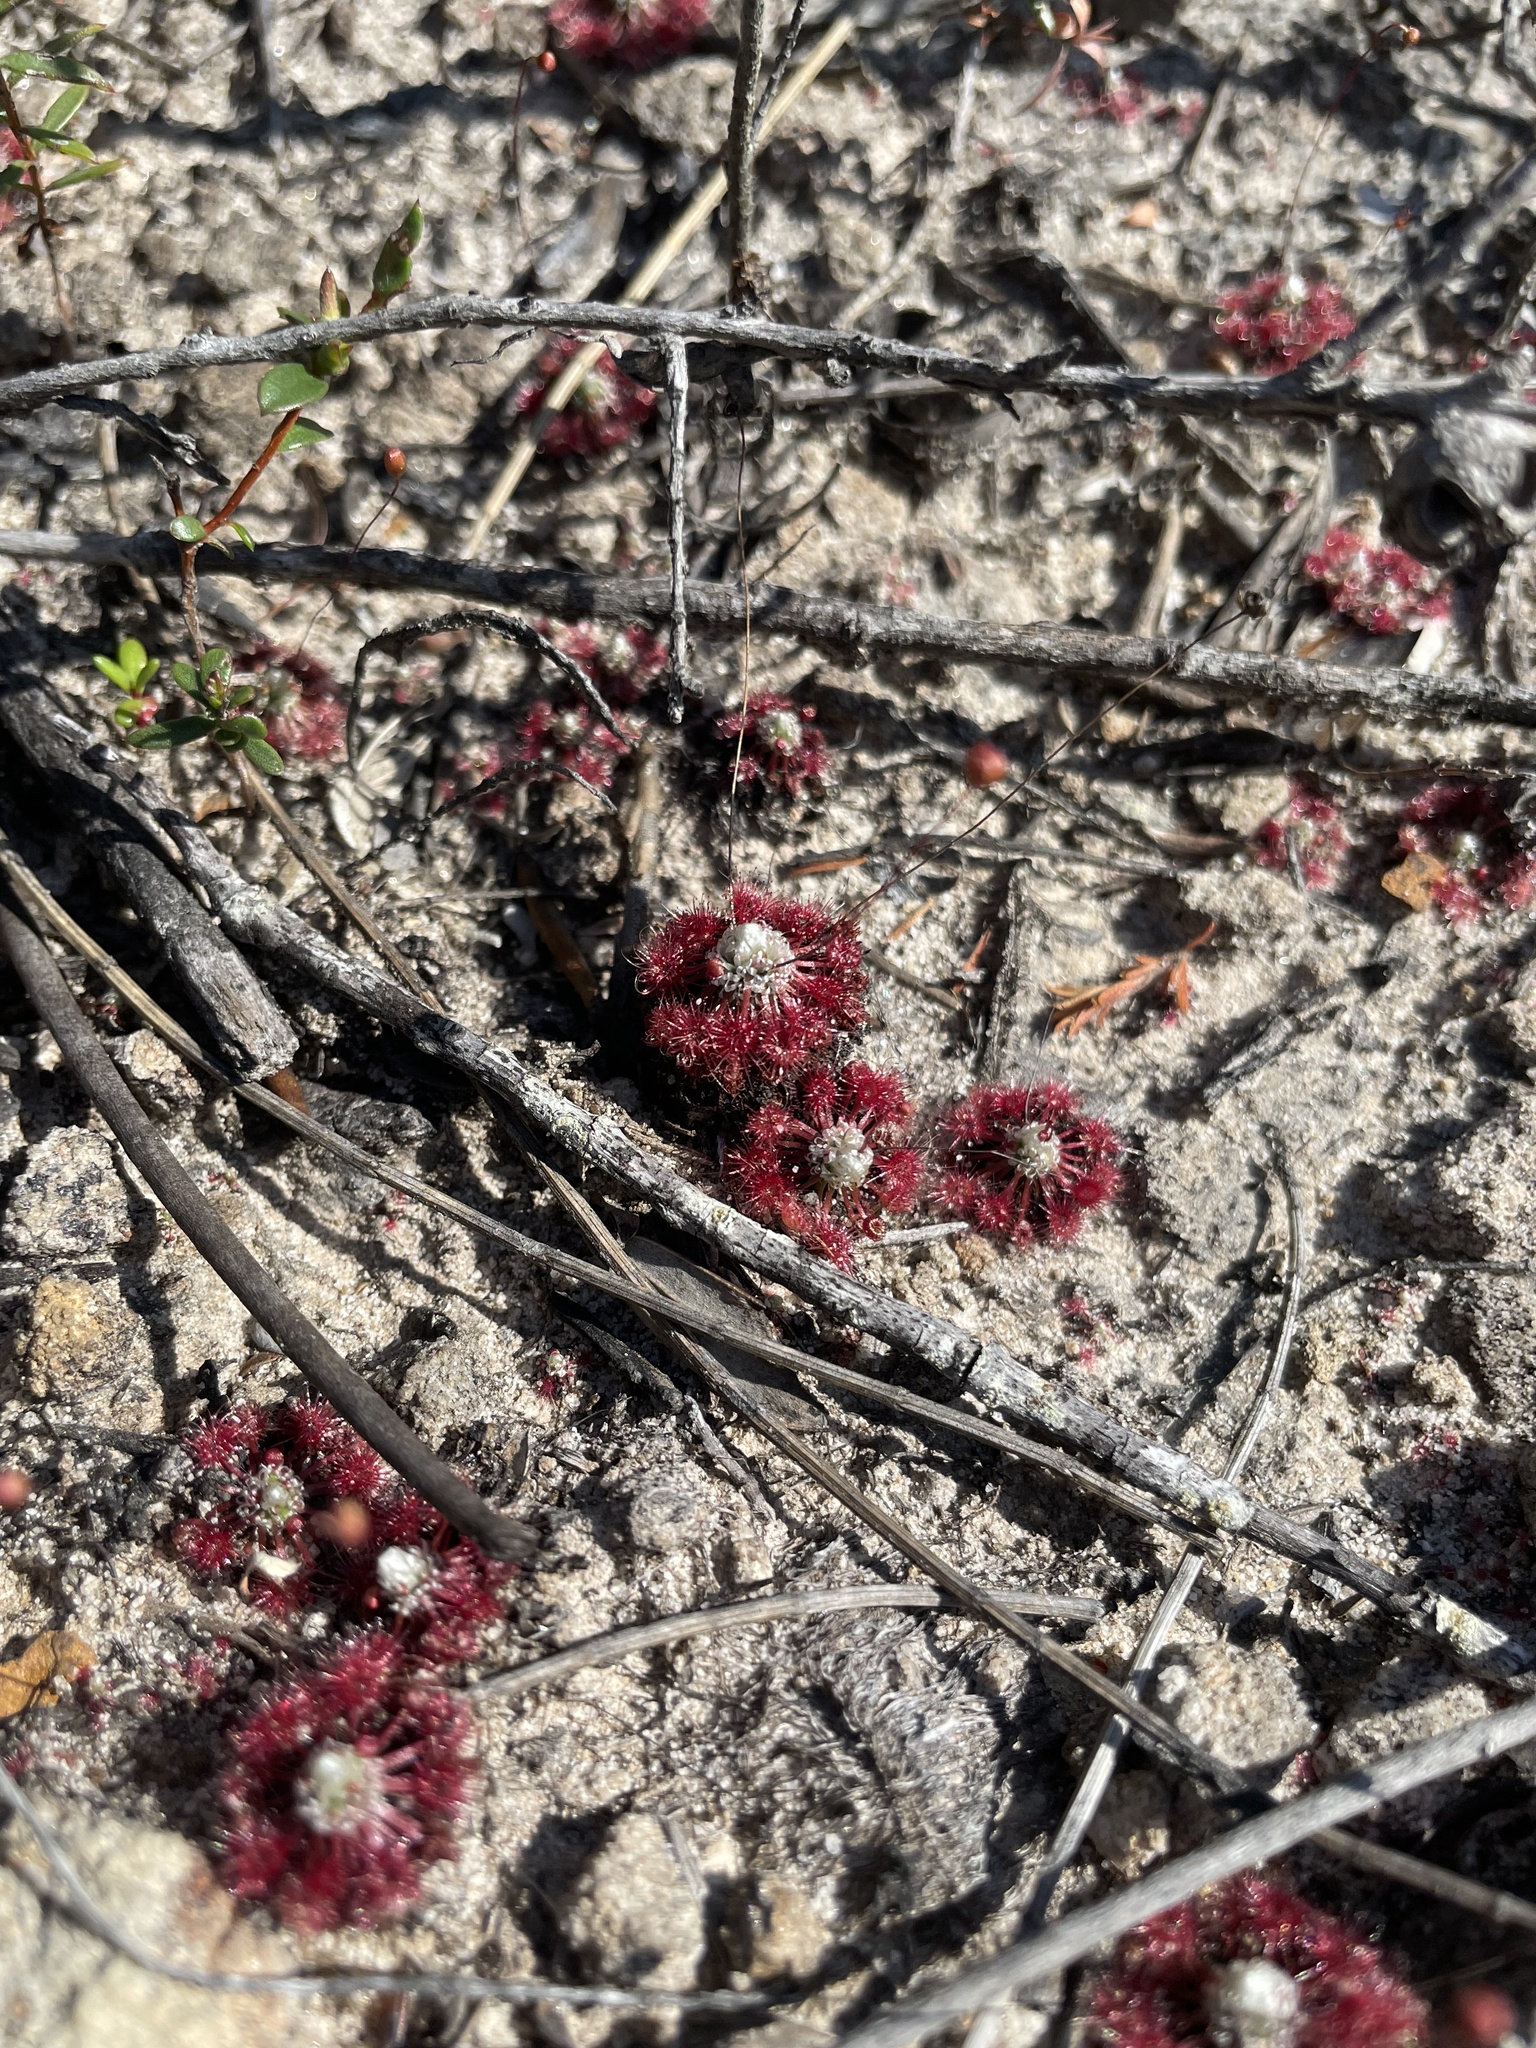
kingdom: Plantae
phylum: Tracheophyta
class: Magnoliopsida
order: Caryophyllales
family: Droseraceae
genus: Drosera
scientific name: Drosera pygmaea
